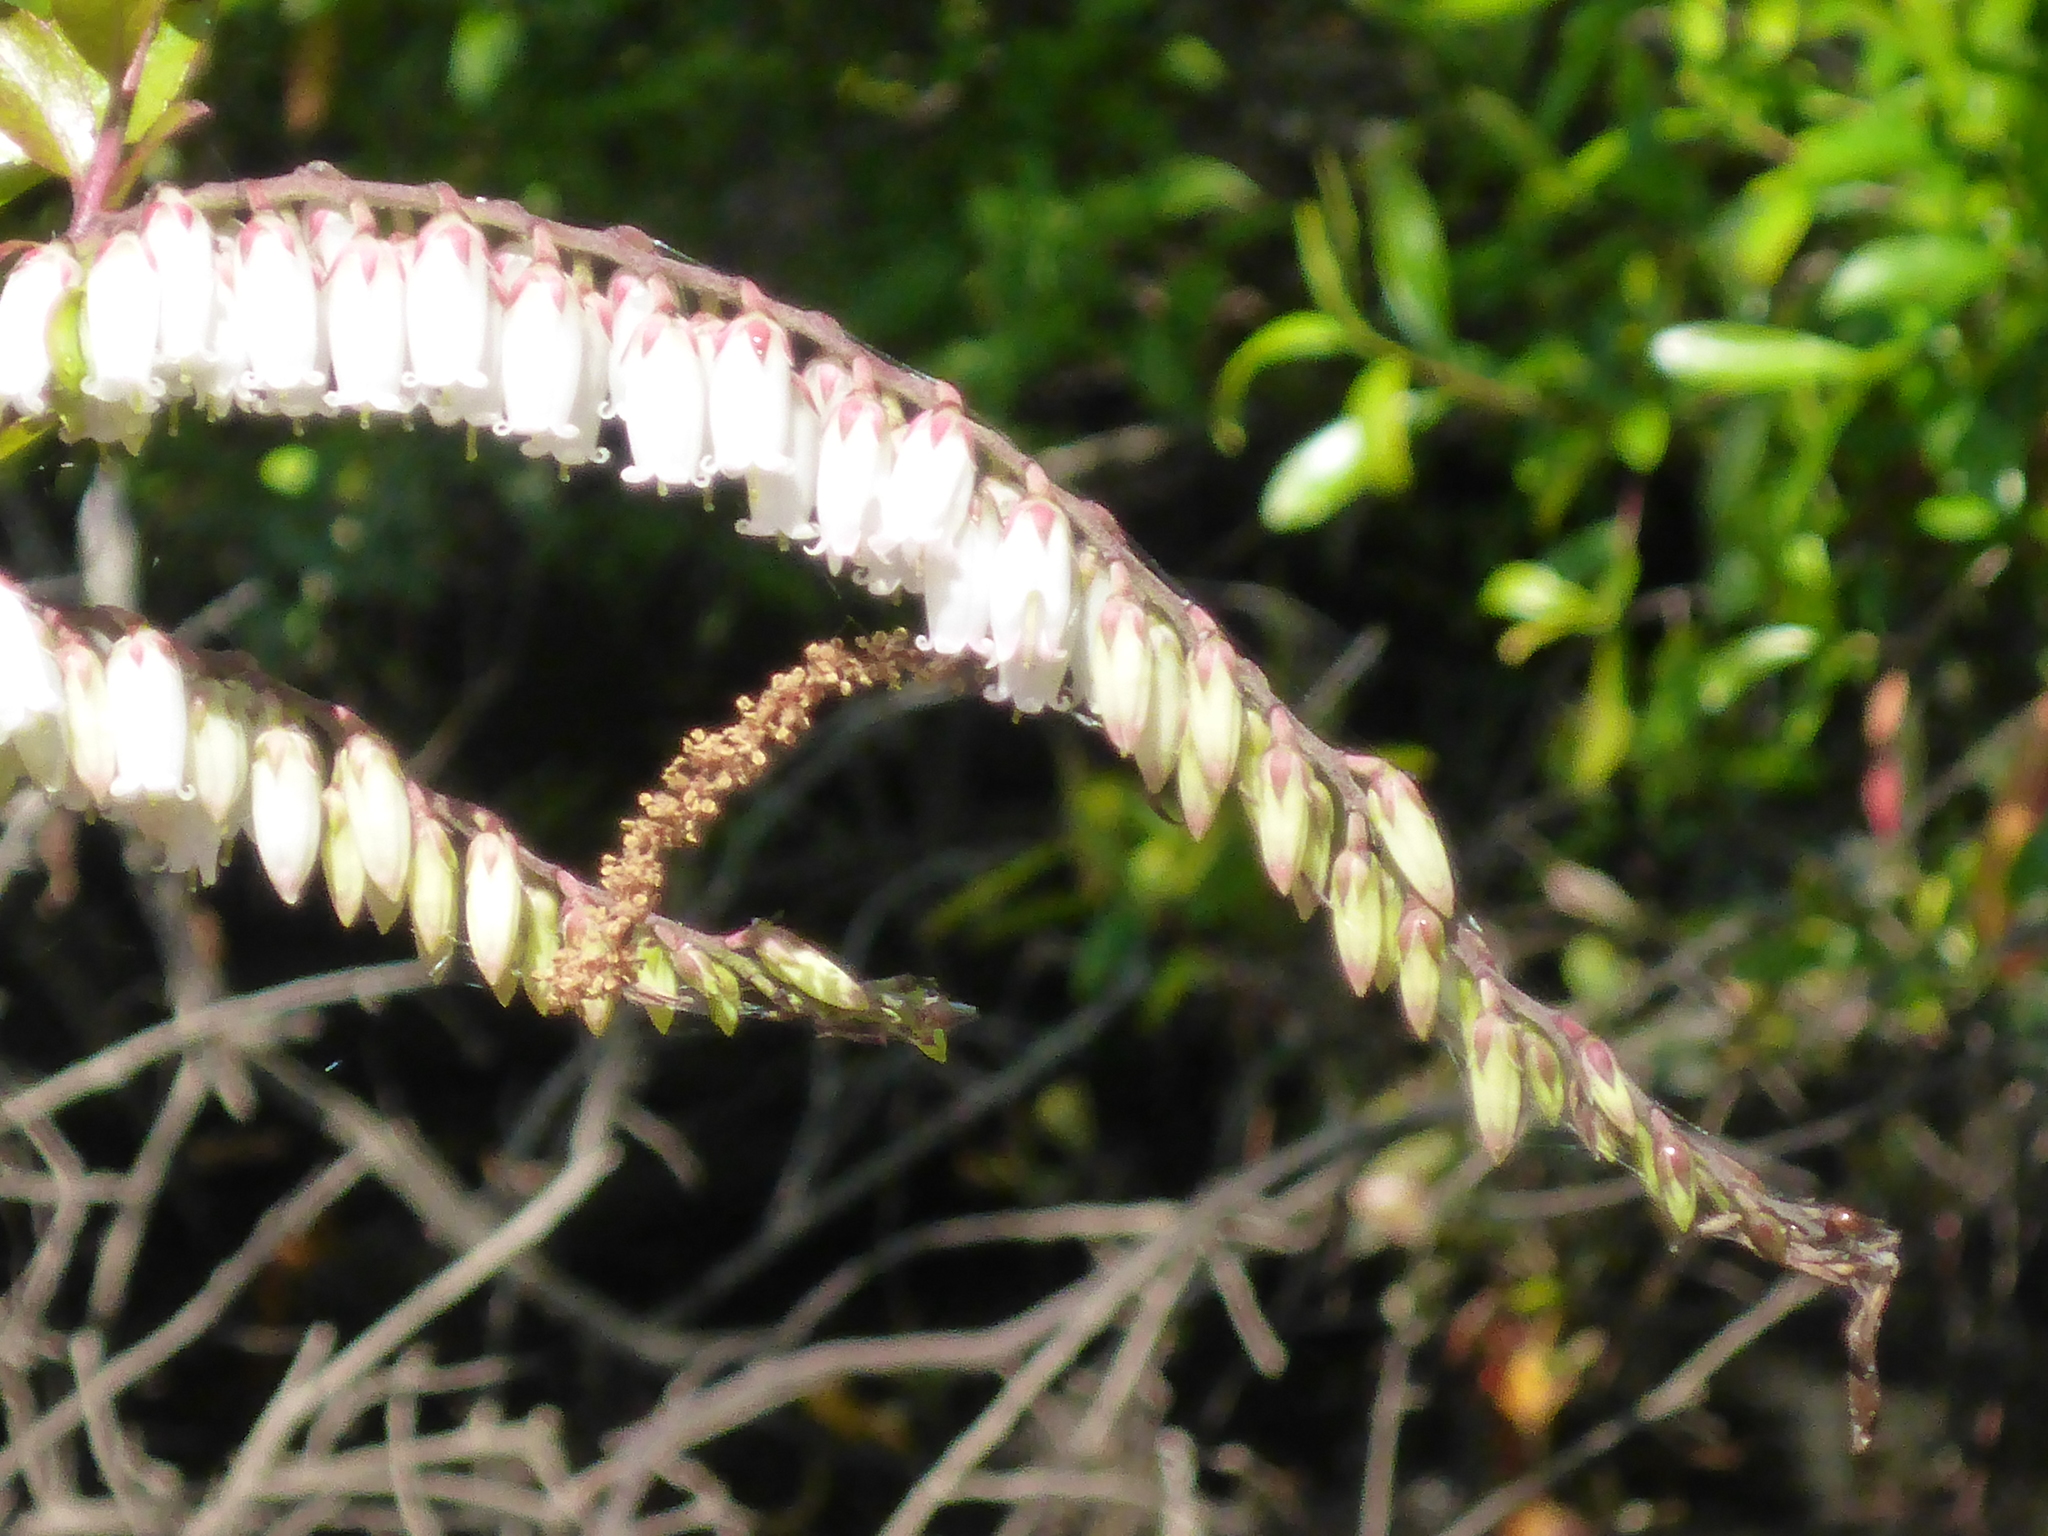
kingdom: Plantae
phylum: Tracheophyta
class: Magnoliopsida
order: Ericales
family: Ericaceae
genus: Eubotrys
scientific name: Eubotrys racemosa
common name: Fetterbush
